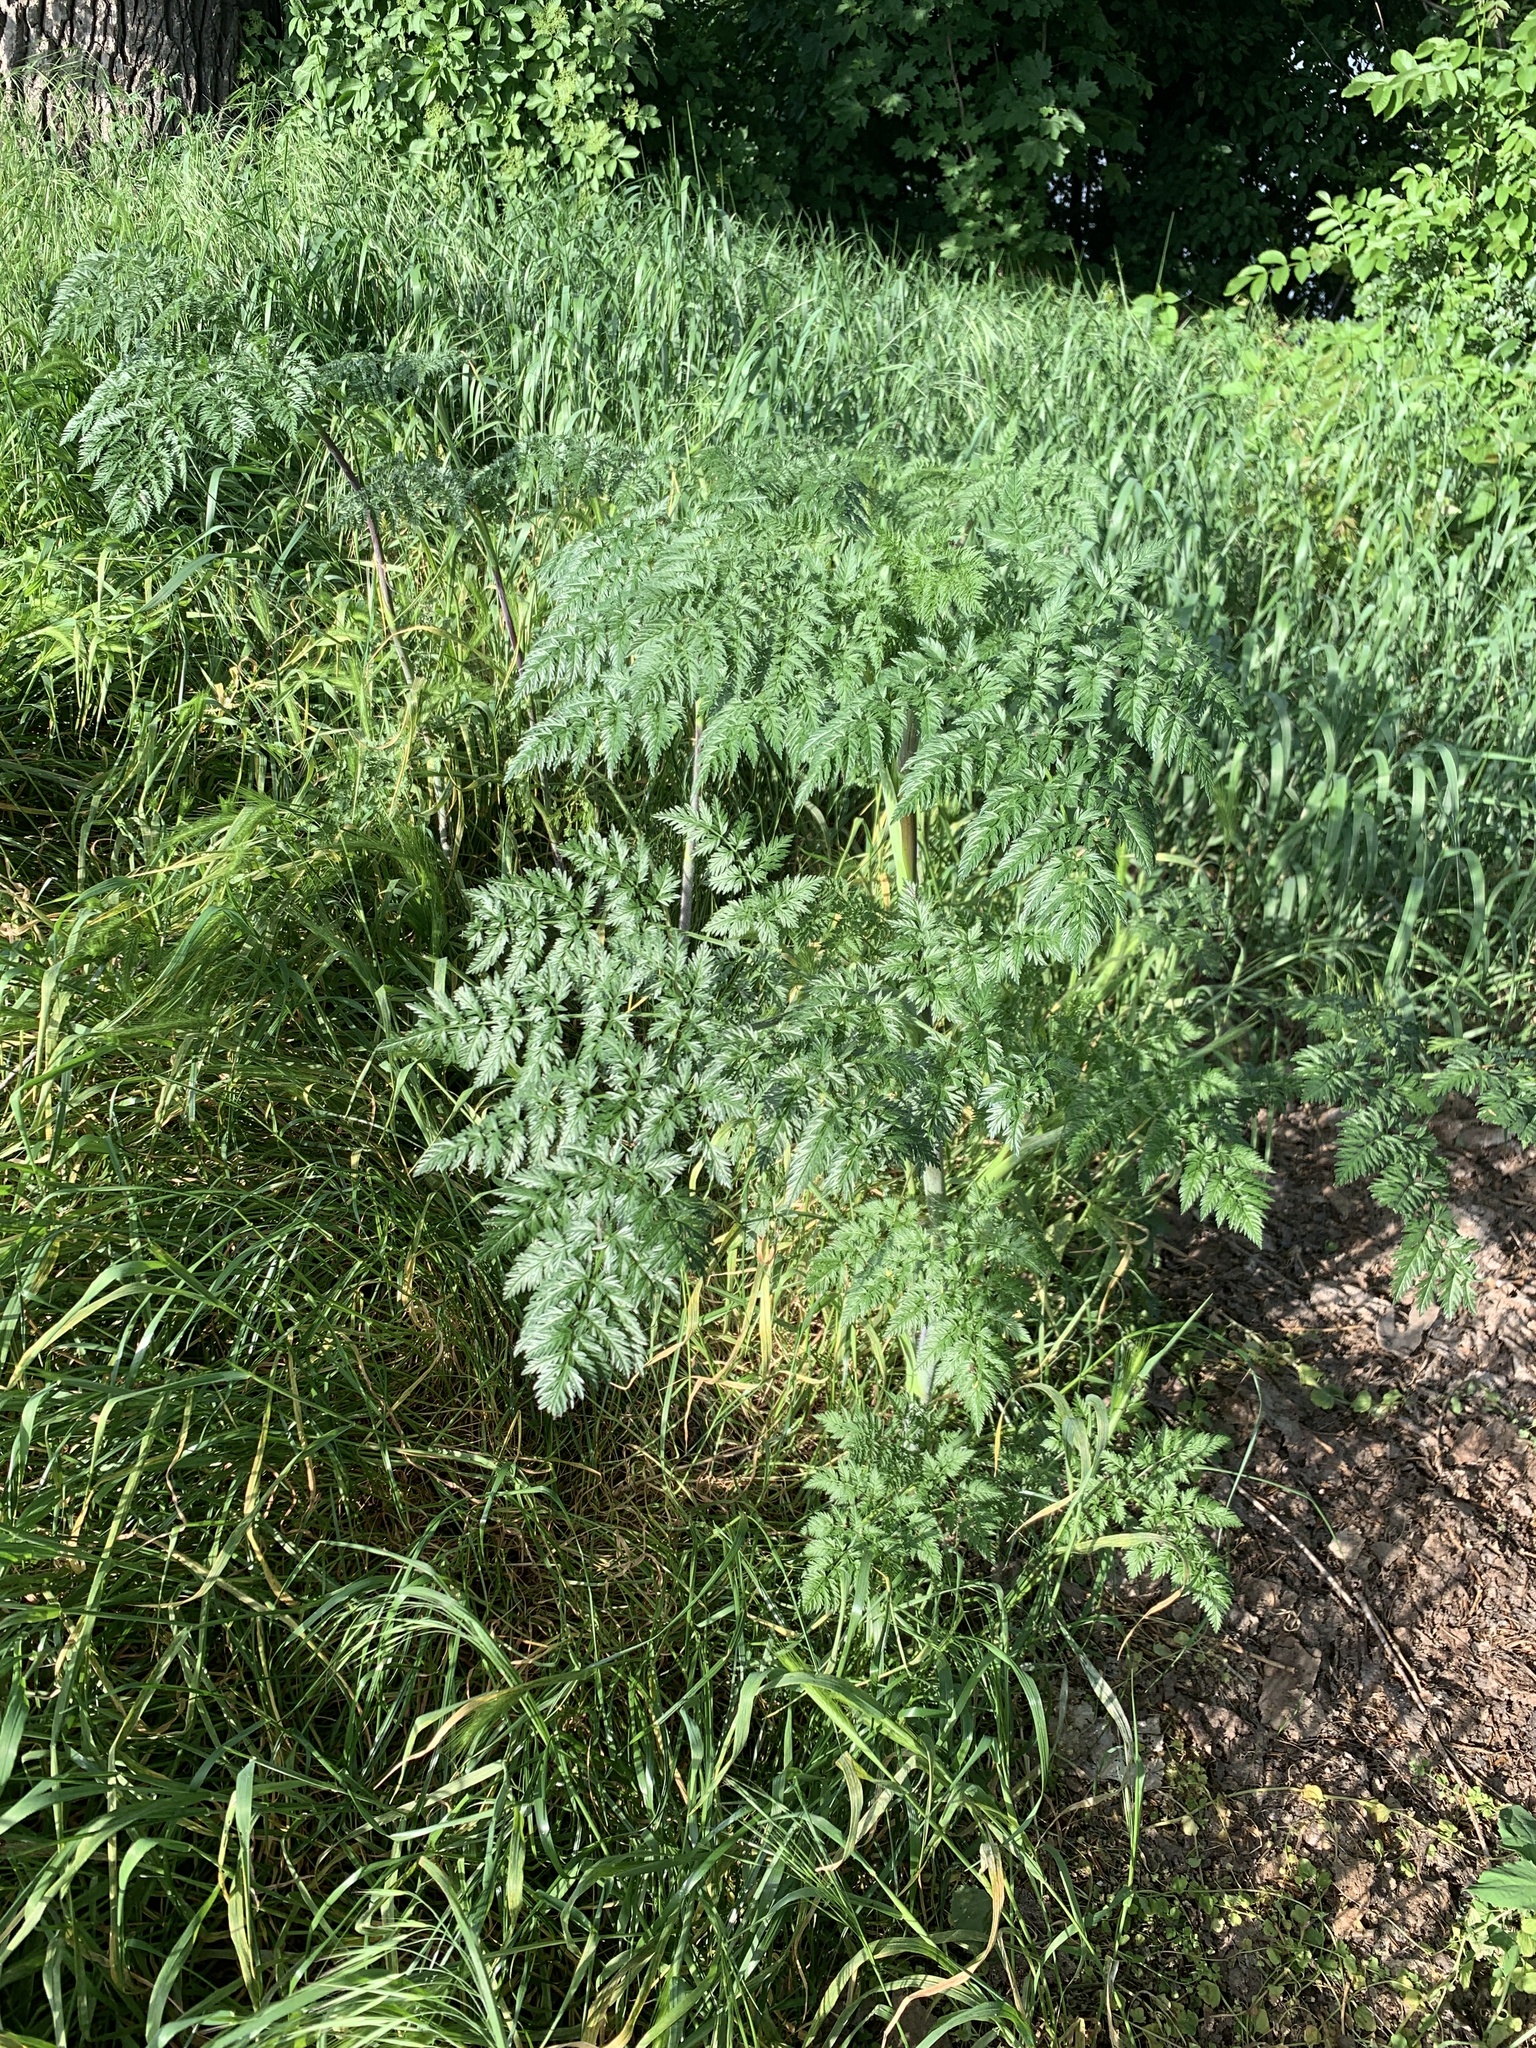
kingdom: Plantae
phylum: Tracheophyta
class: Magnoliopsida
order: Apiales
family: Apiaceae
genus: Chaerophyllum
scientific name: Chaerophyllum bulbosum
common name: Bulbous chervil
